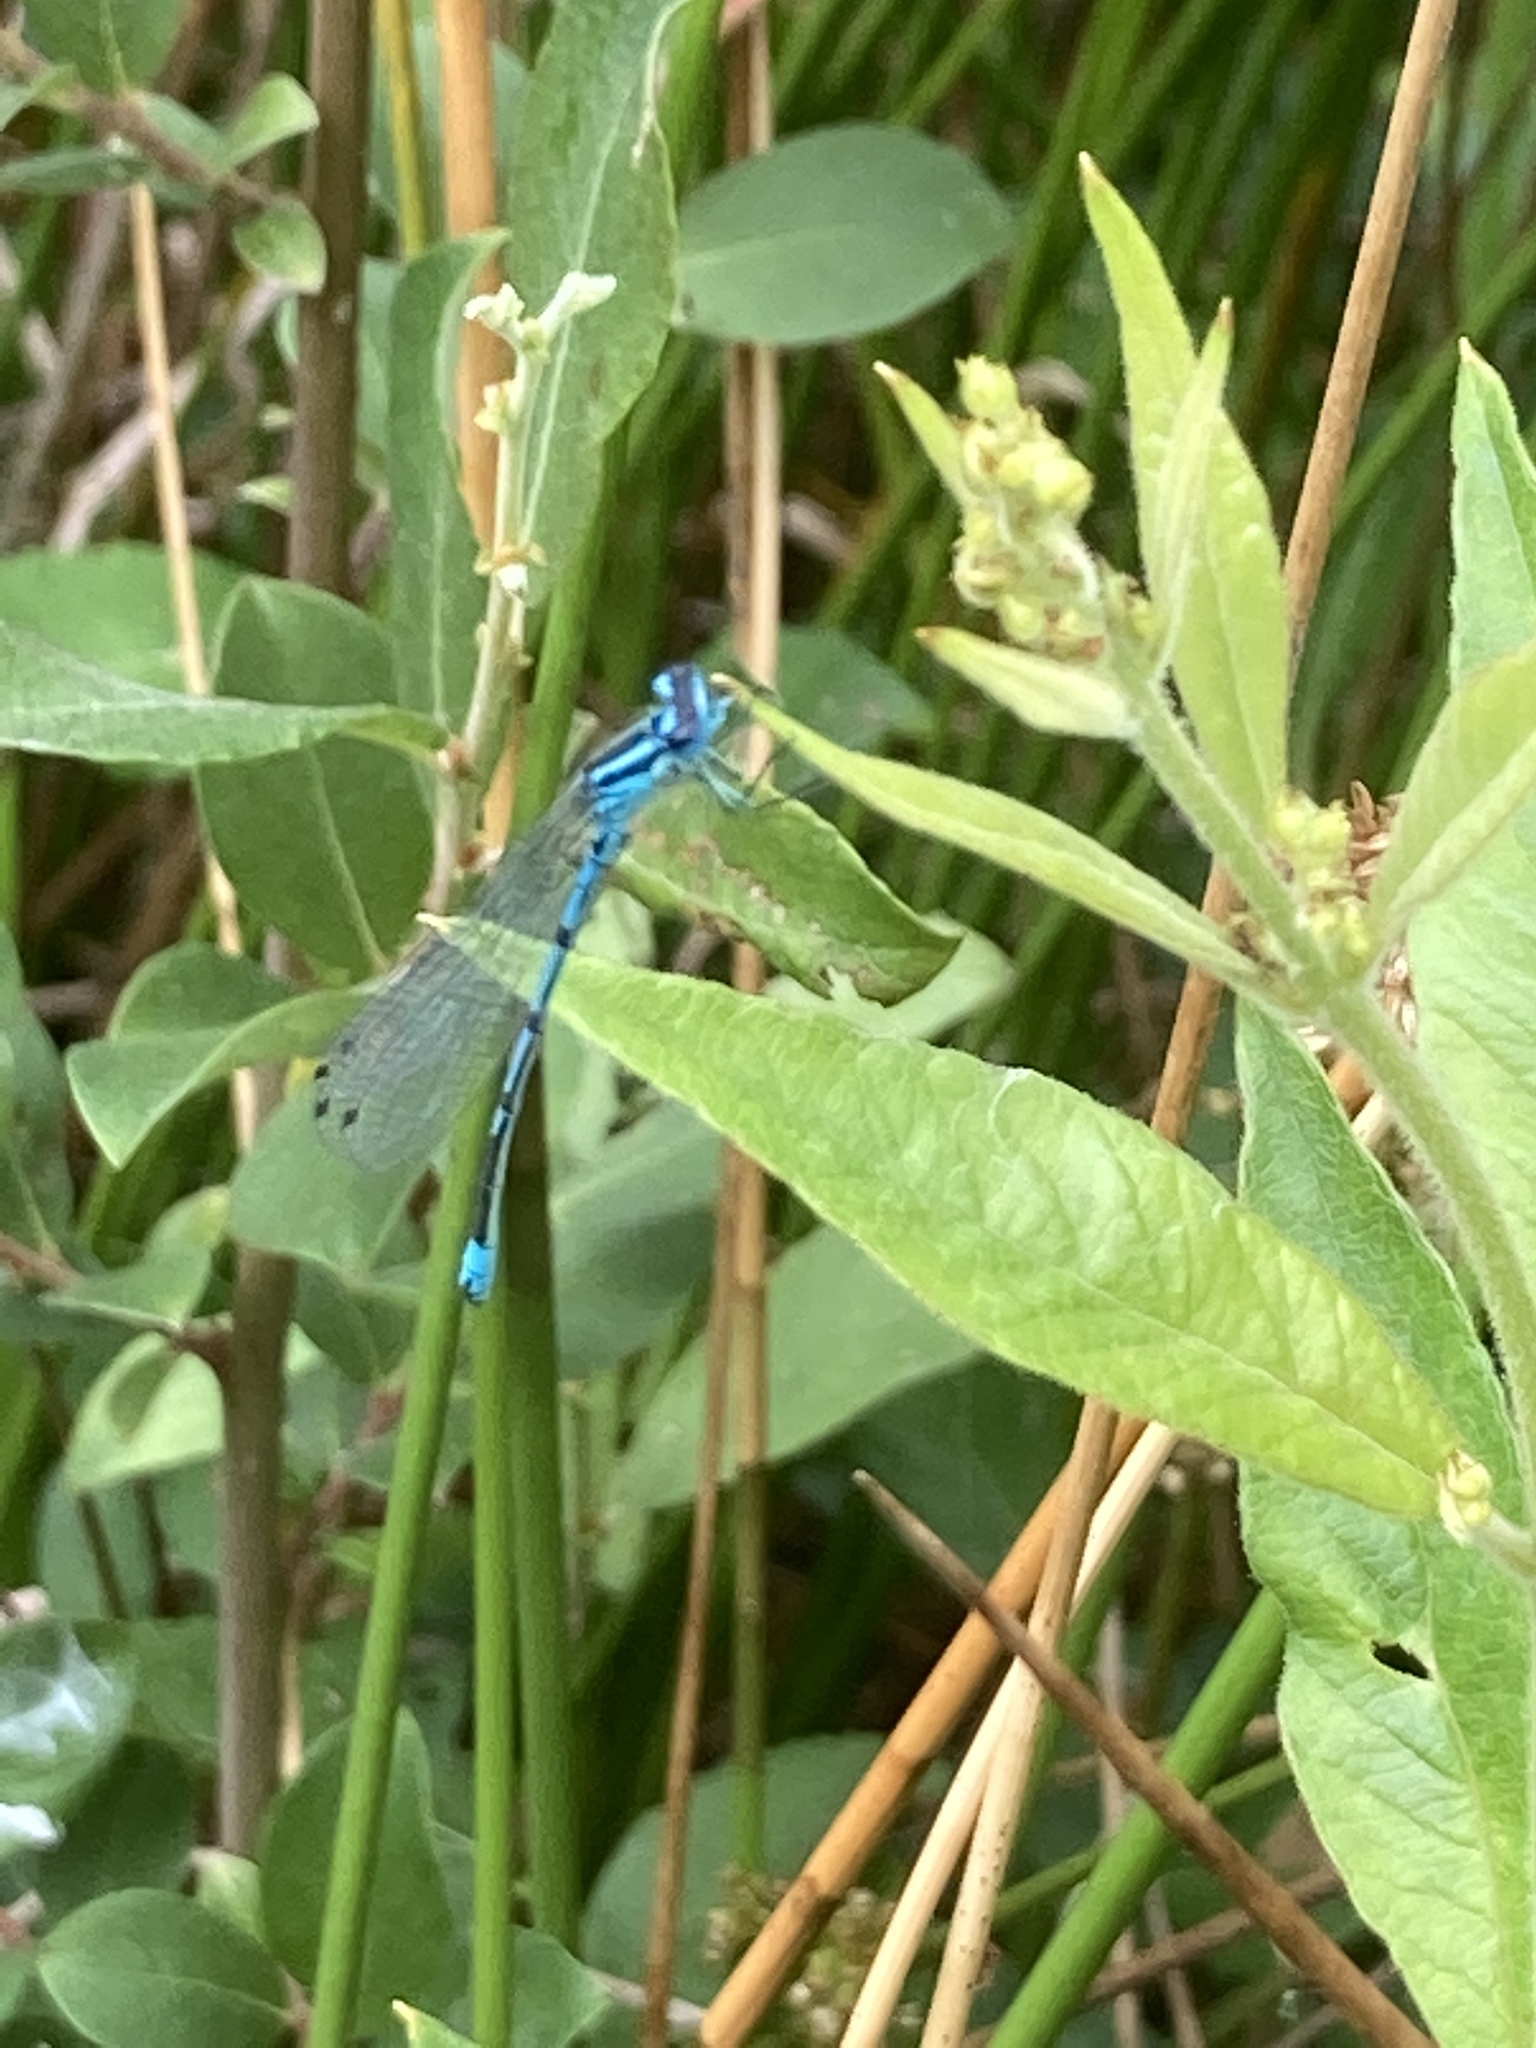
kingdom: Animalia
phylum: Arthropoda
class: Insecta
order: Odonata
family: Coenagrionidae
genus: Coenagrion
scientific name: Coenagrion puella
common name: Azure damselfly
